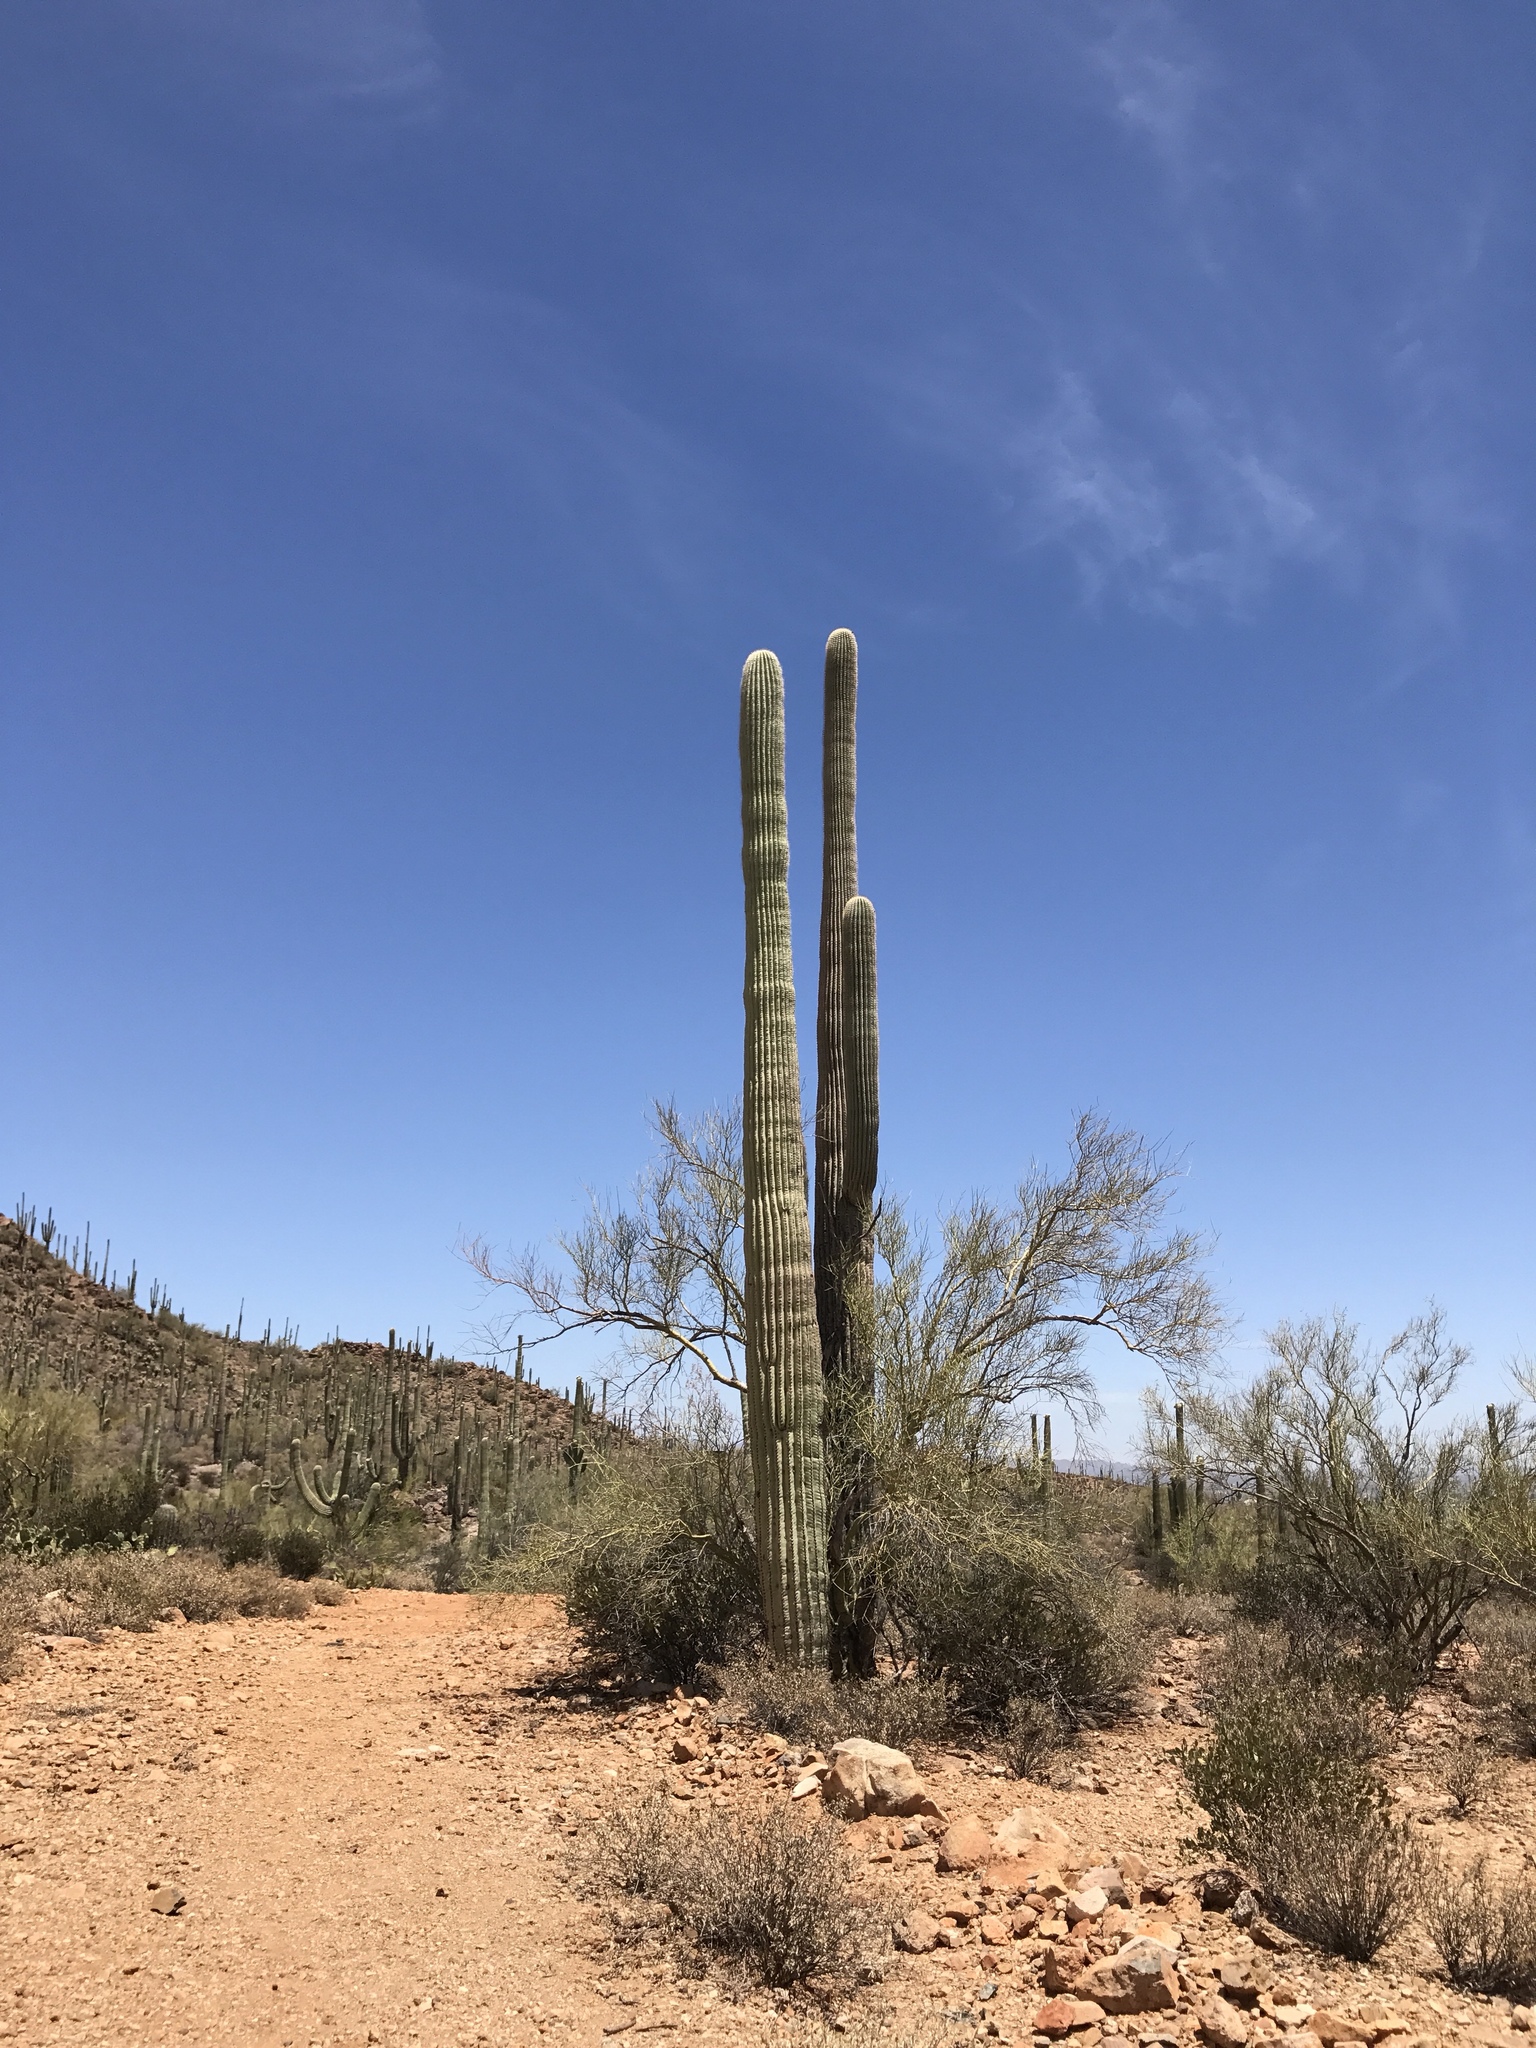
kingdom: Plantae
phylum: Tracheophyta
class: Magnoliopsida
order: Caryophyllales
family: Cactaceae
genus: Carnegiea
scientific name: Carnegiea gigantea
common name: Saguaro
